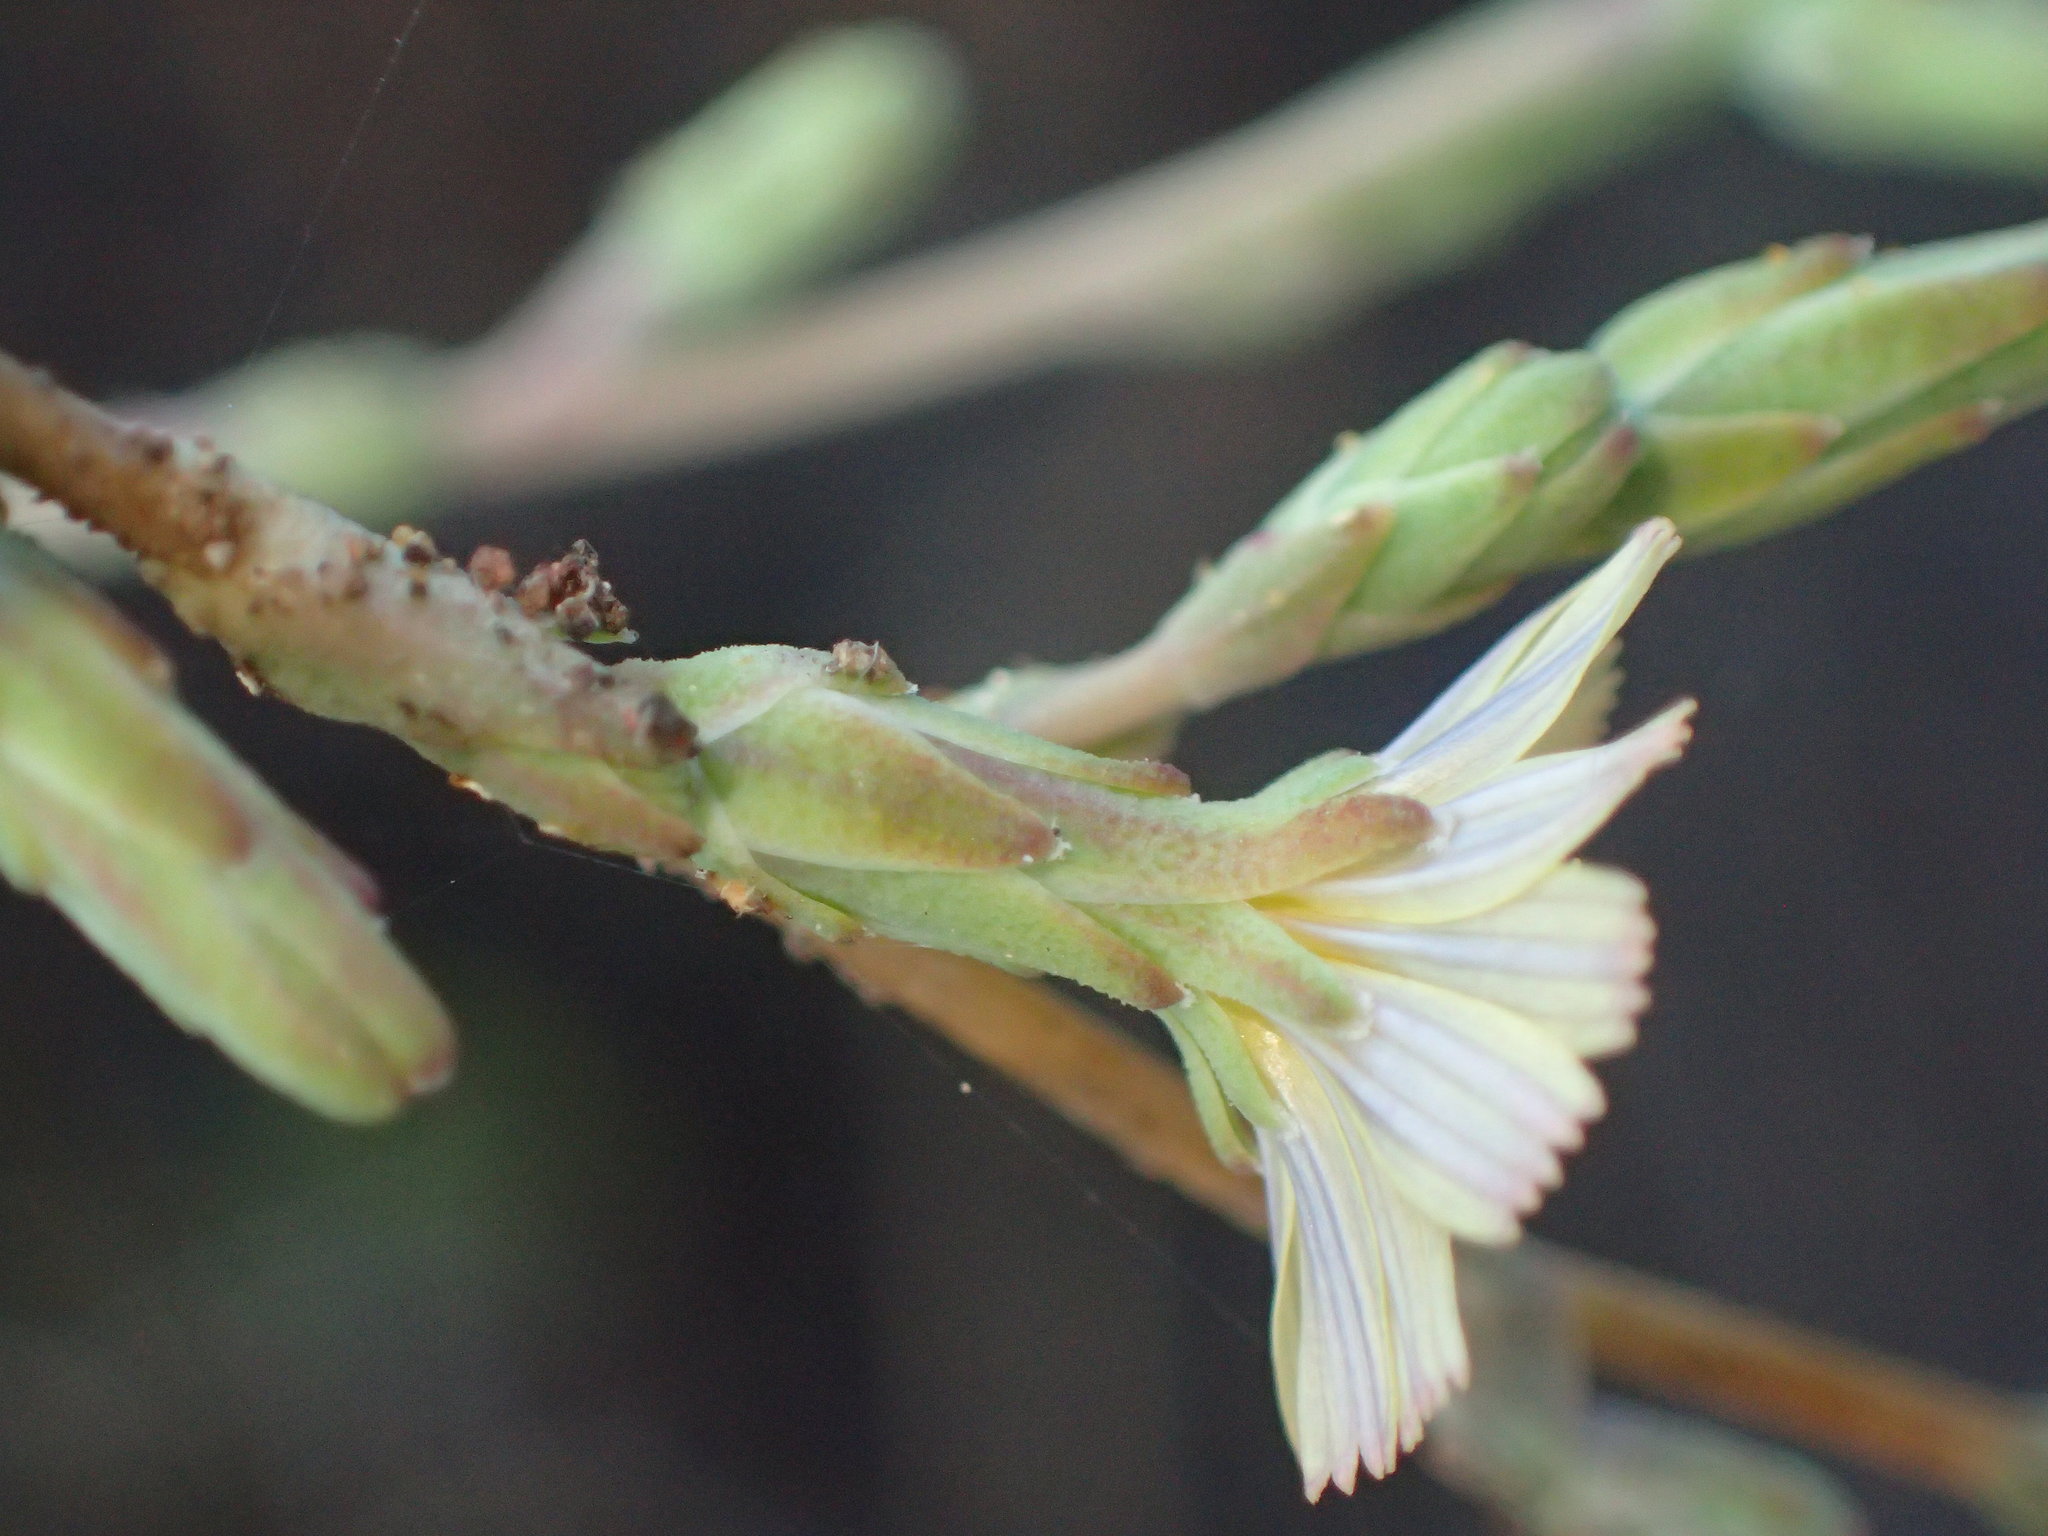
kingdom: Plantae
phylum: Tracheophyta
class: Magnoliopsida
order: Asterales
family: Asteraceae
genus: Lactuca
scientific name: Lactuca serriola
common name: Prickly lettuce
